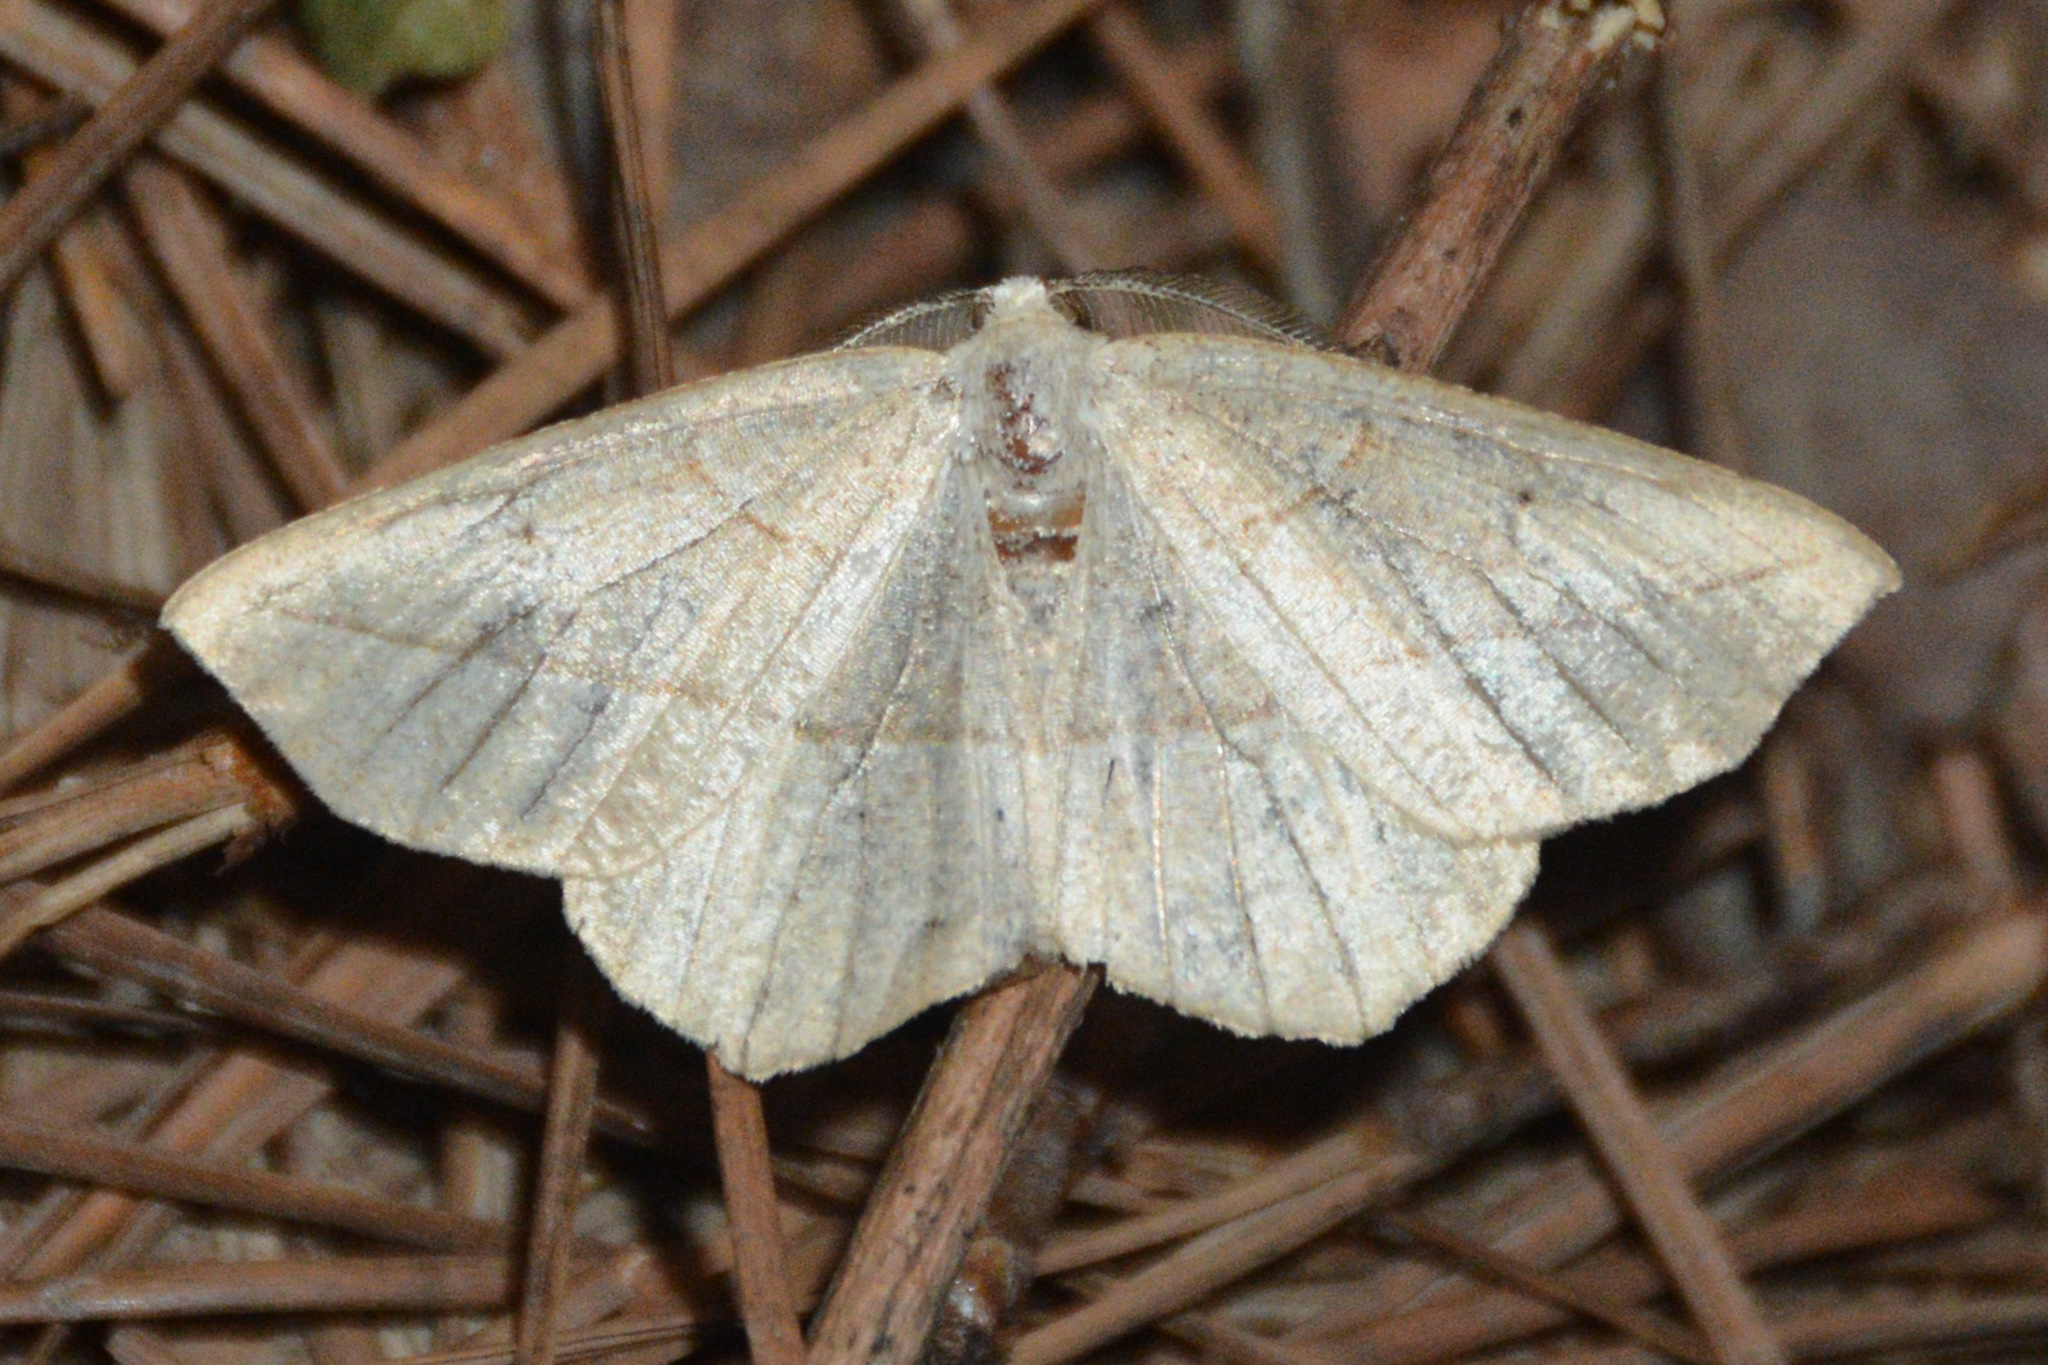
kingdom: Animalia
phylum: Arthropoda
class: Insecta
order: Lepidoptera
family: Geometridae
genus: Eusarca
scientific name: Eusarca confusaria
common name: Confused eusarca
